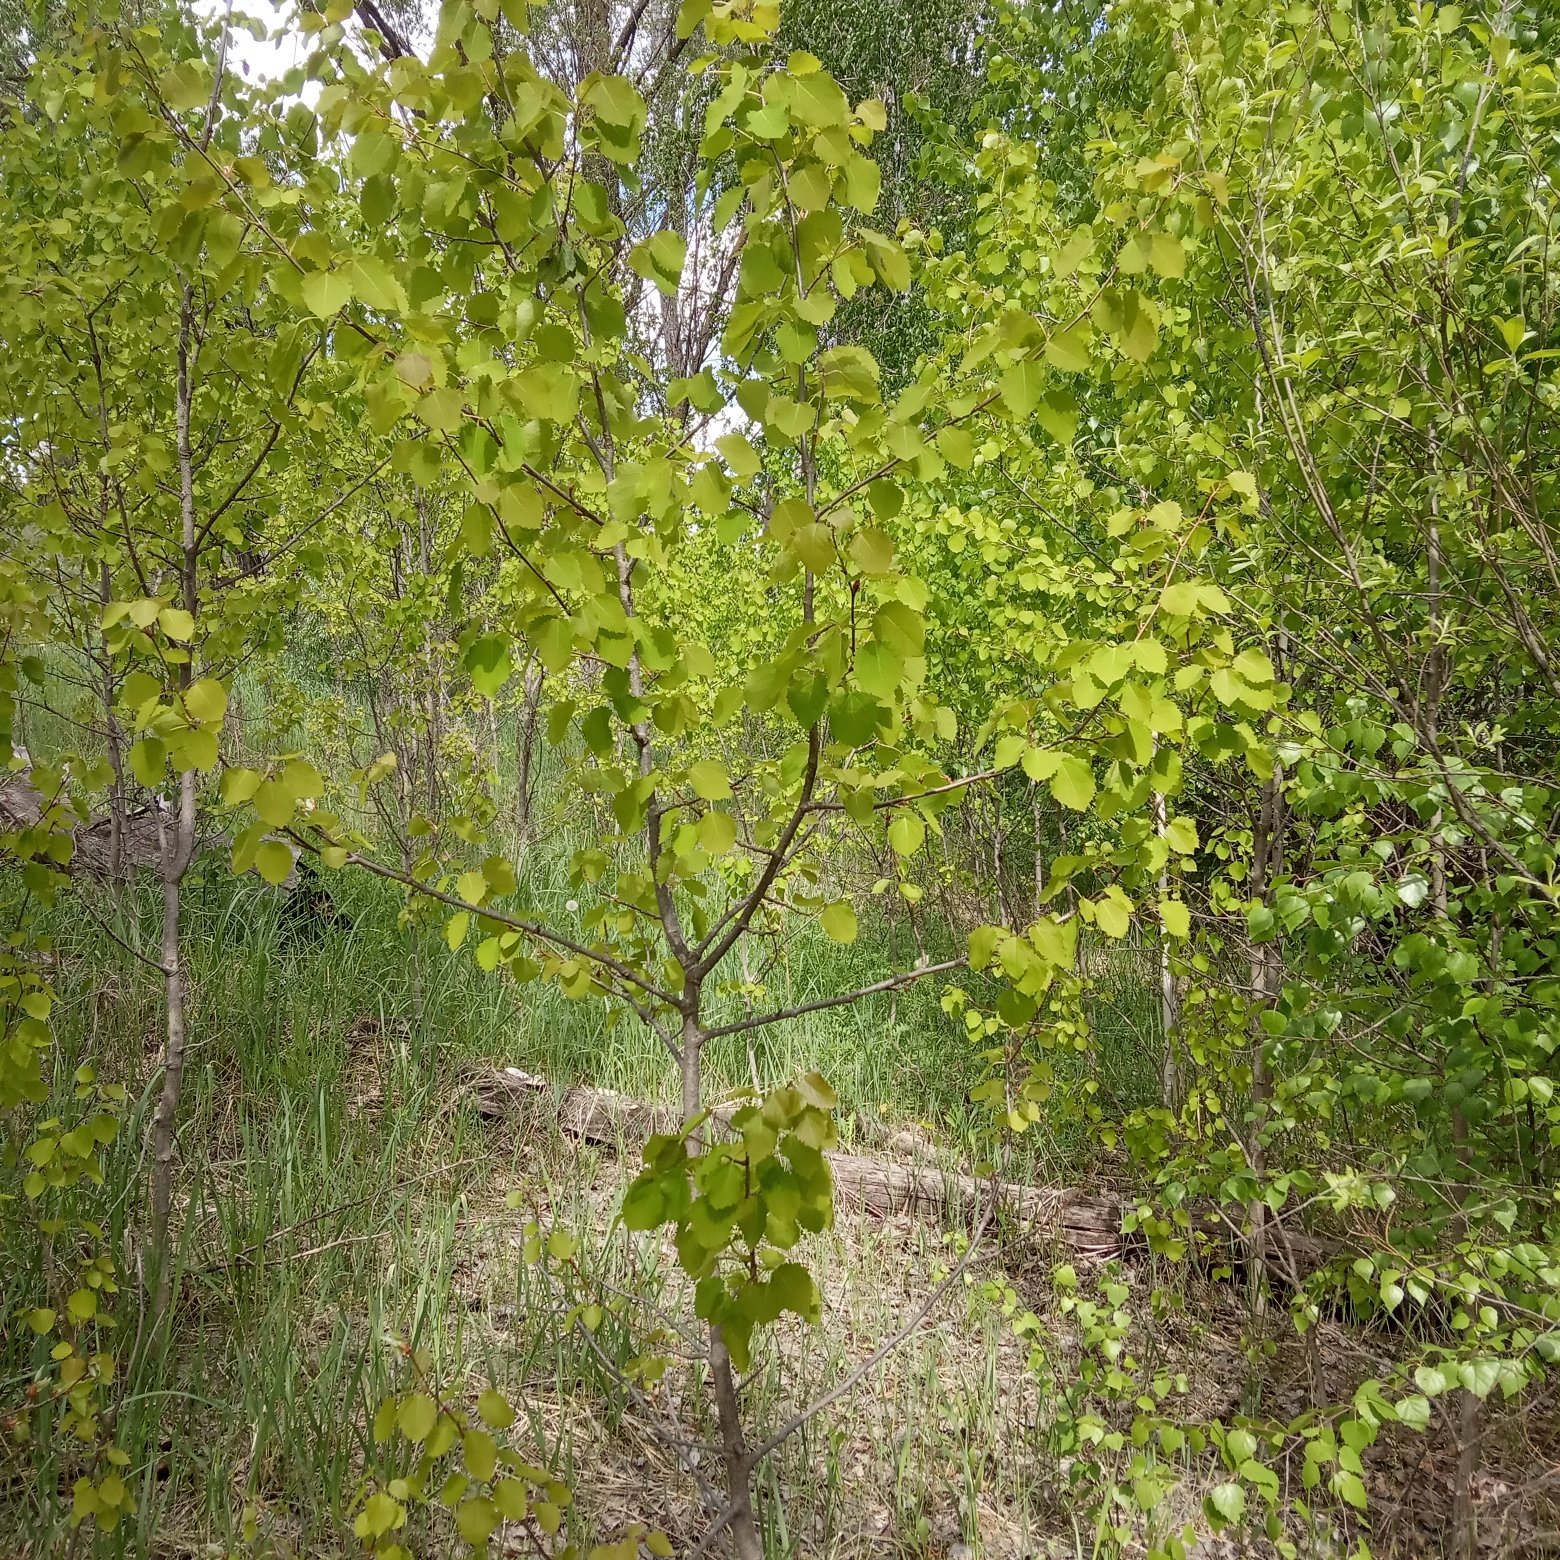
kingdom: Plantae
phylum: Tracheophyta
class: Magnoliopsida
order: Malpighiales
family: Salicaceae
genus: Populus
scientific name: Populus tremula
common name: European aspen
